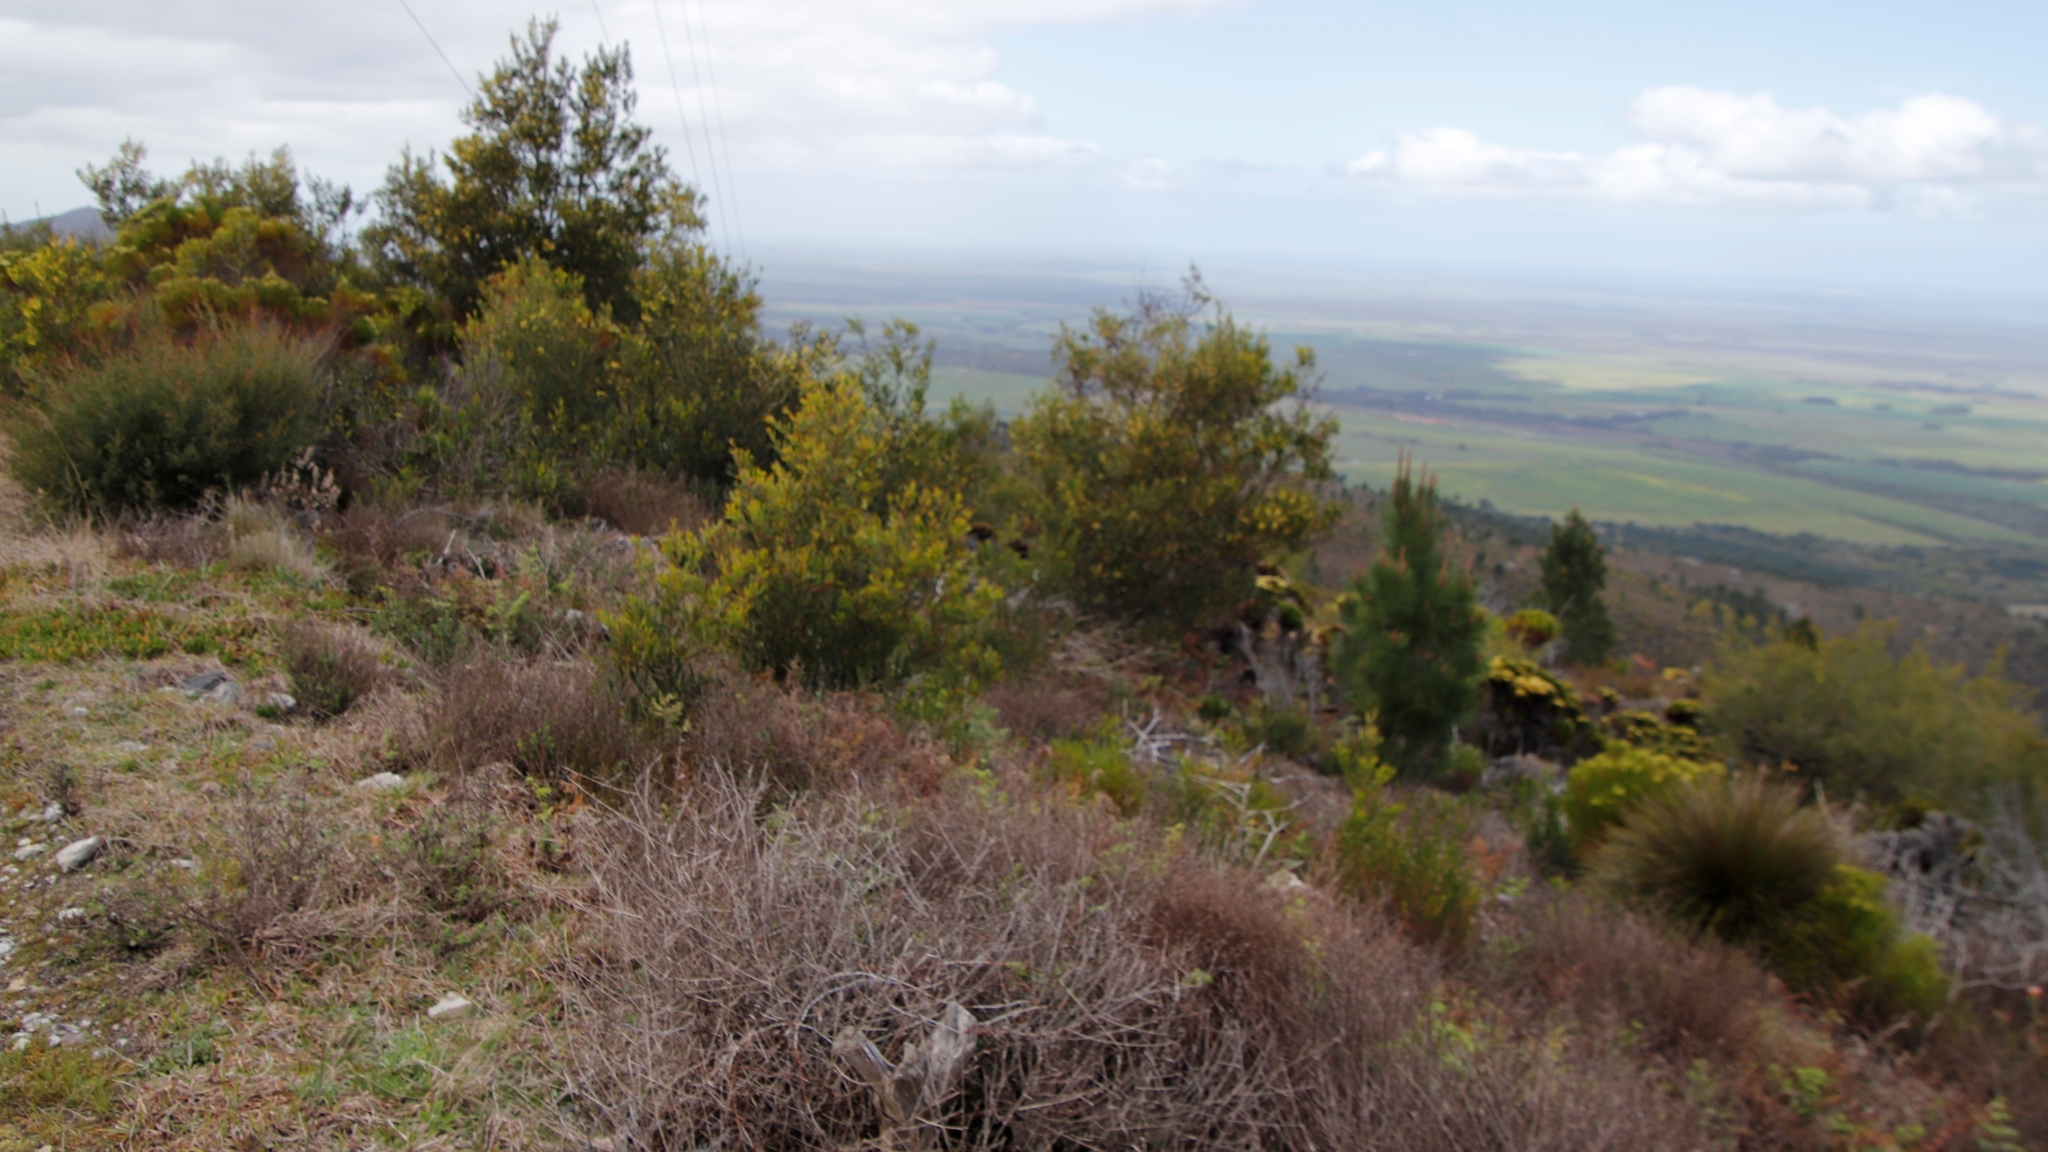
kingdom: Plantae
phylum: Tracheophyta
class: Pinopsida
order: Pinales
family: Pinaceae
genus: Pinus
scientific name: Pinus pinaster
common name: Maritime pine
